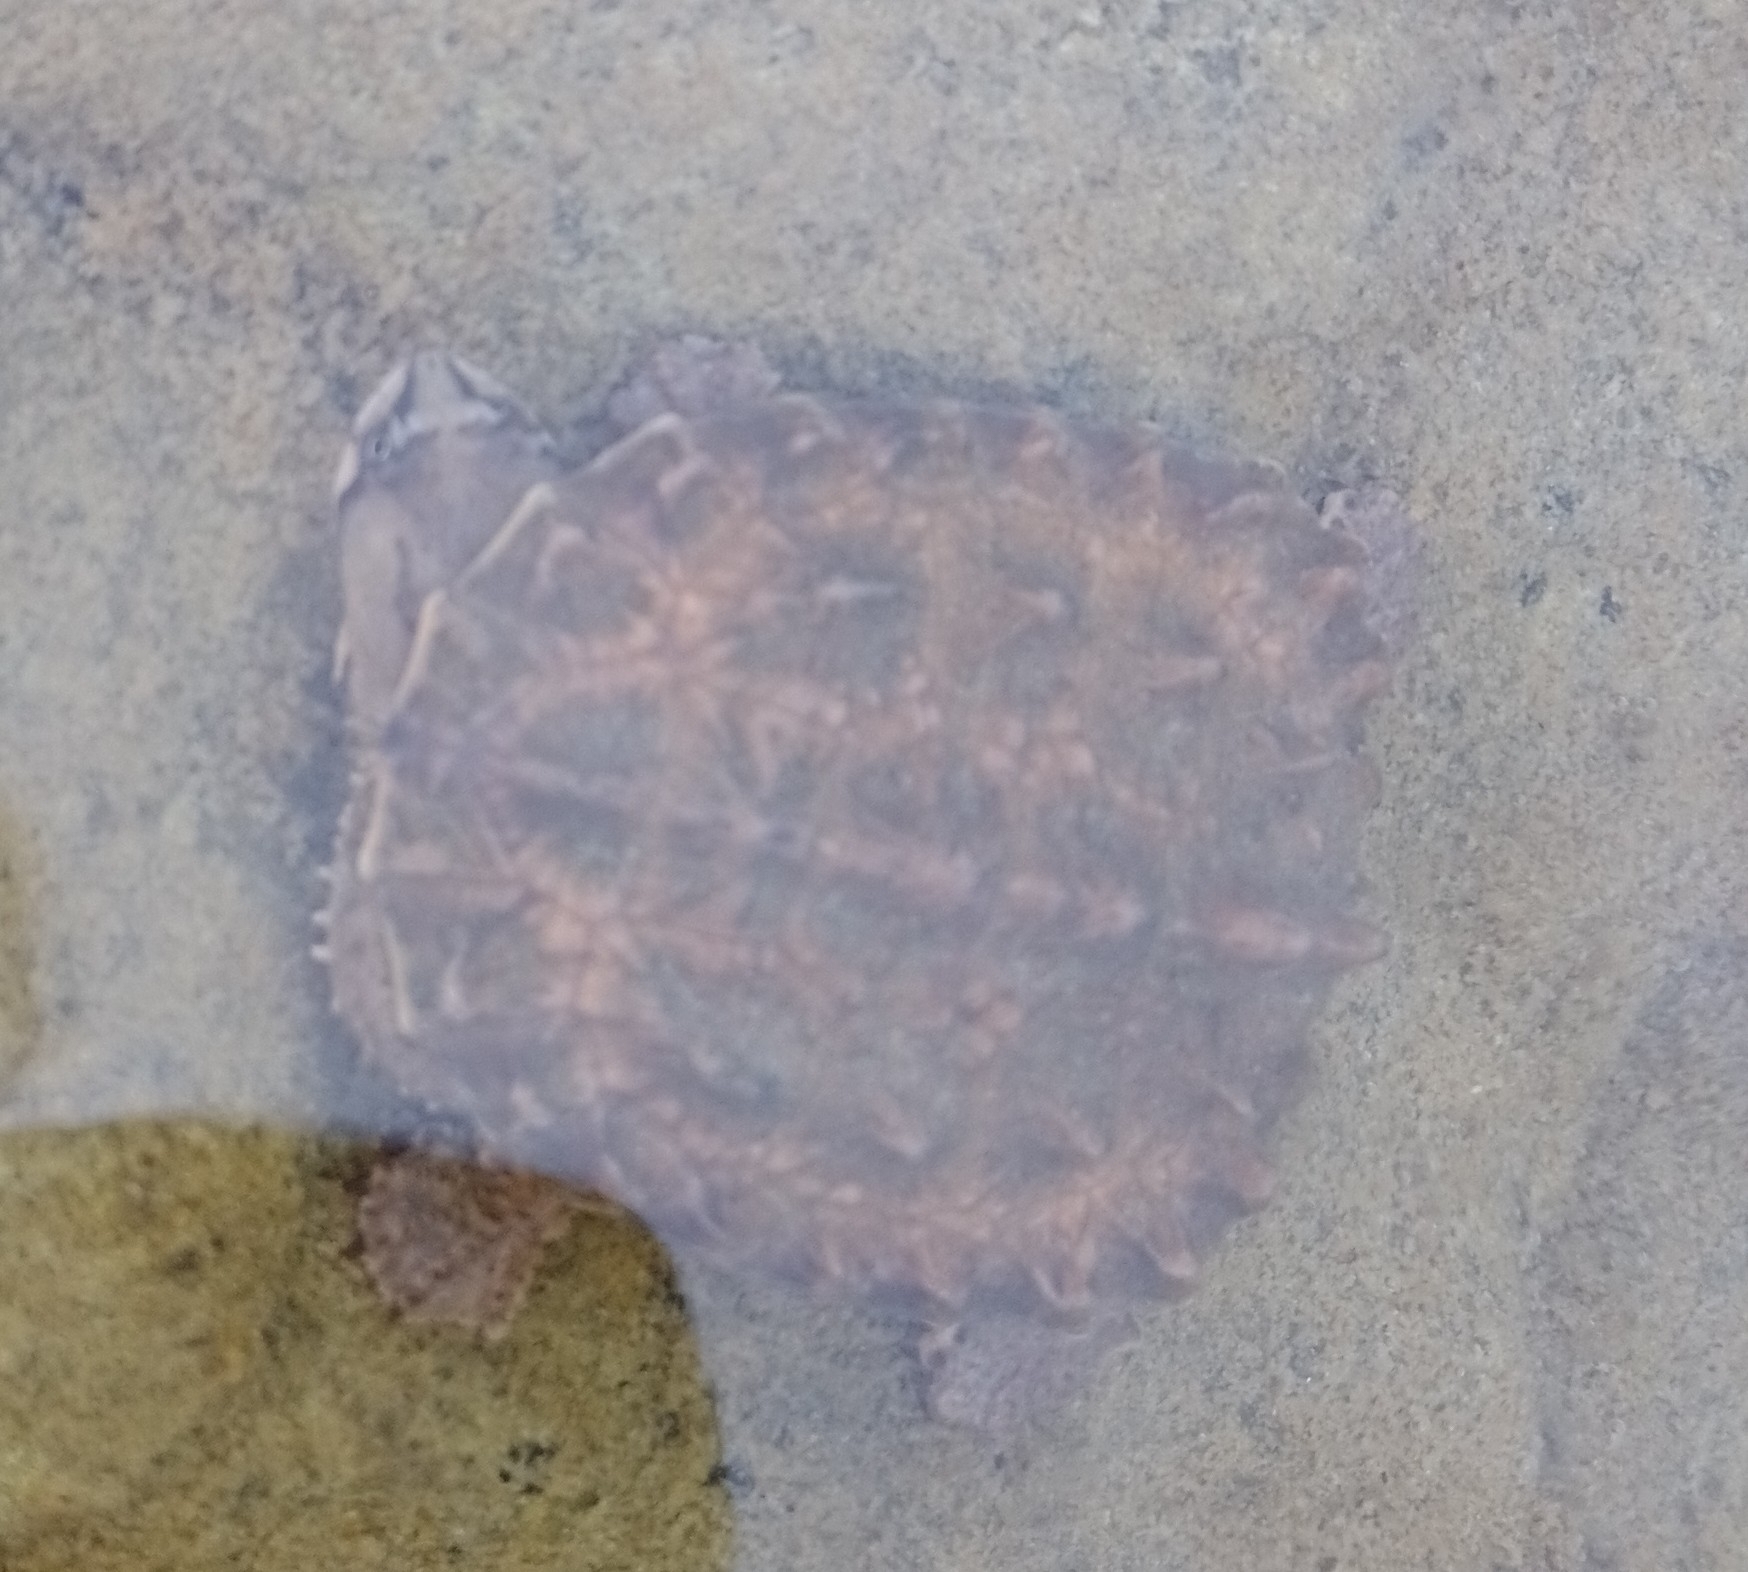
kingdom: Animalia
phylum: Chordata
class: Testudines
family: Chelidae
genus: Hydromedusa
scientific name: Hydromedusa tectifera
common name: Argentine snake-necked turtle
